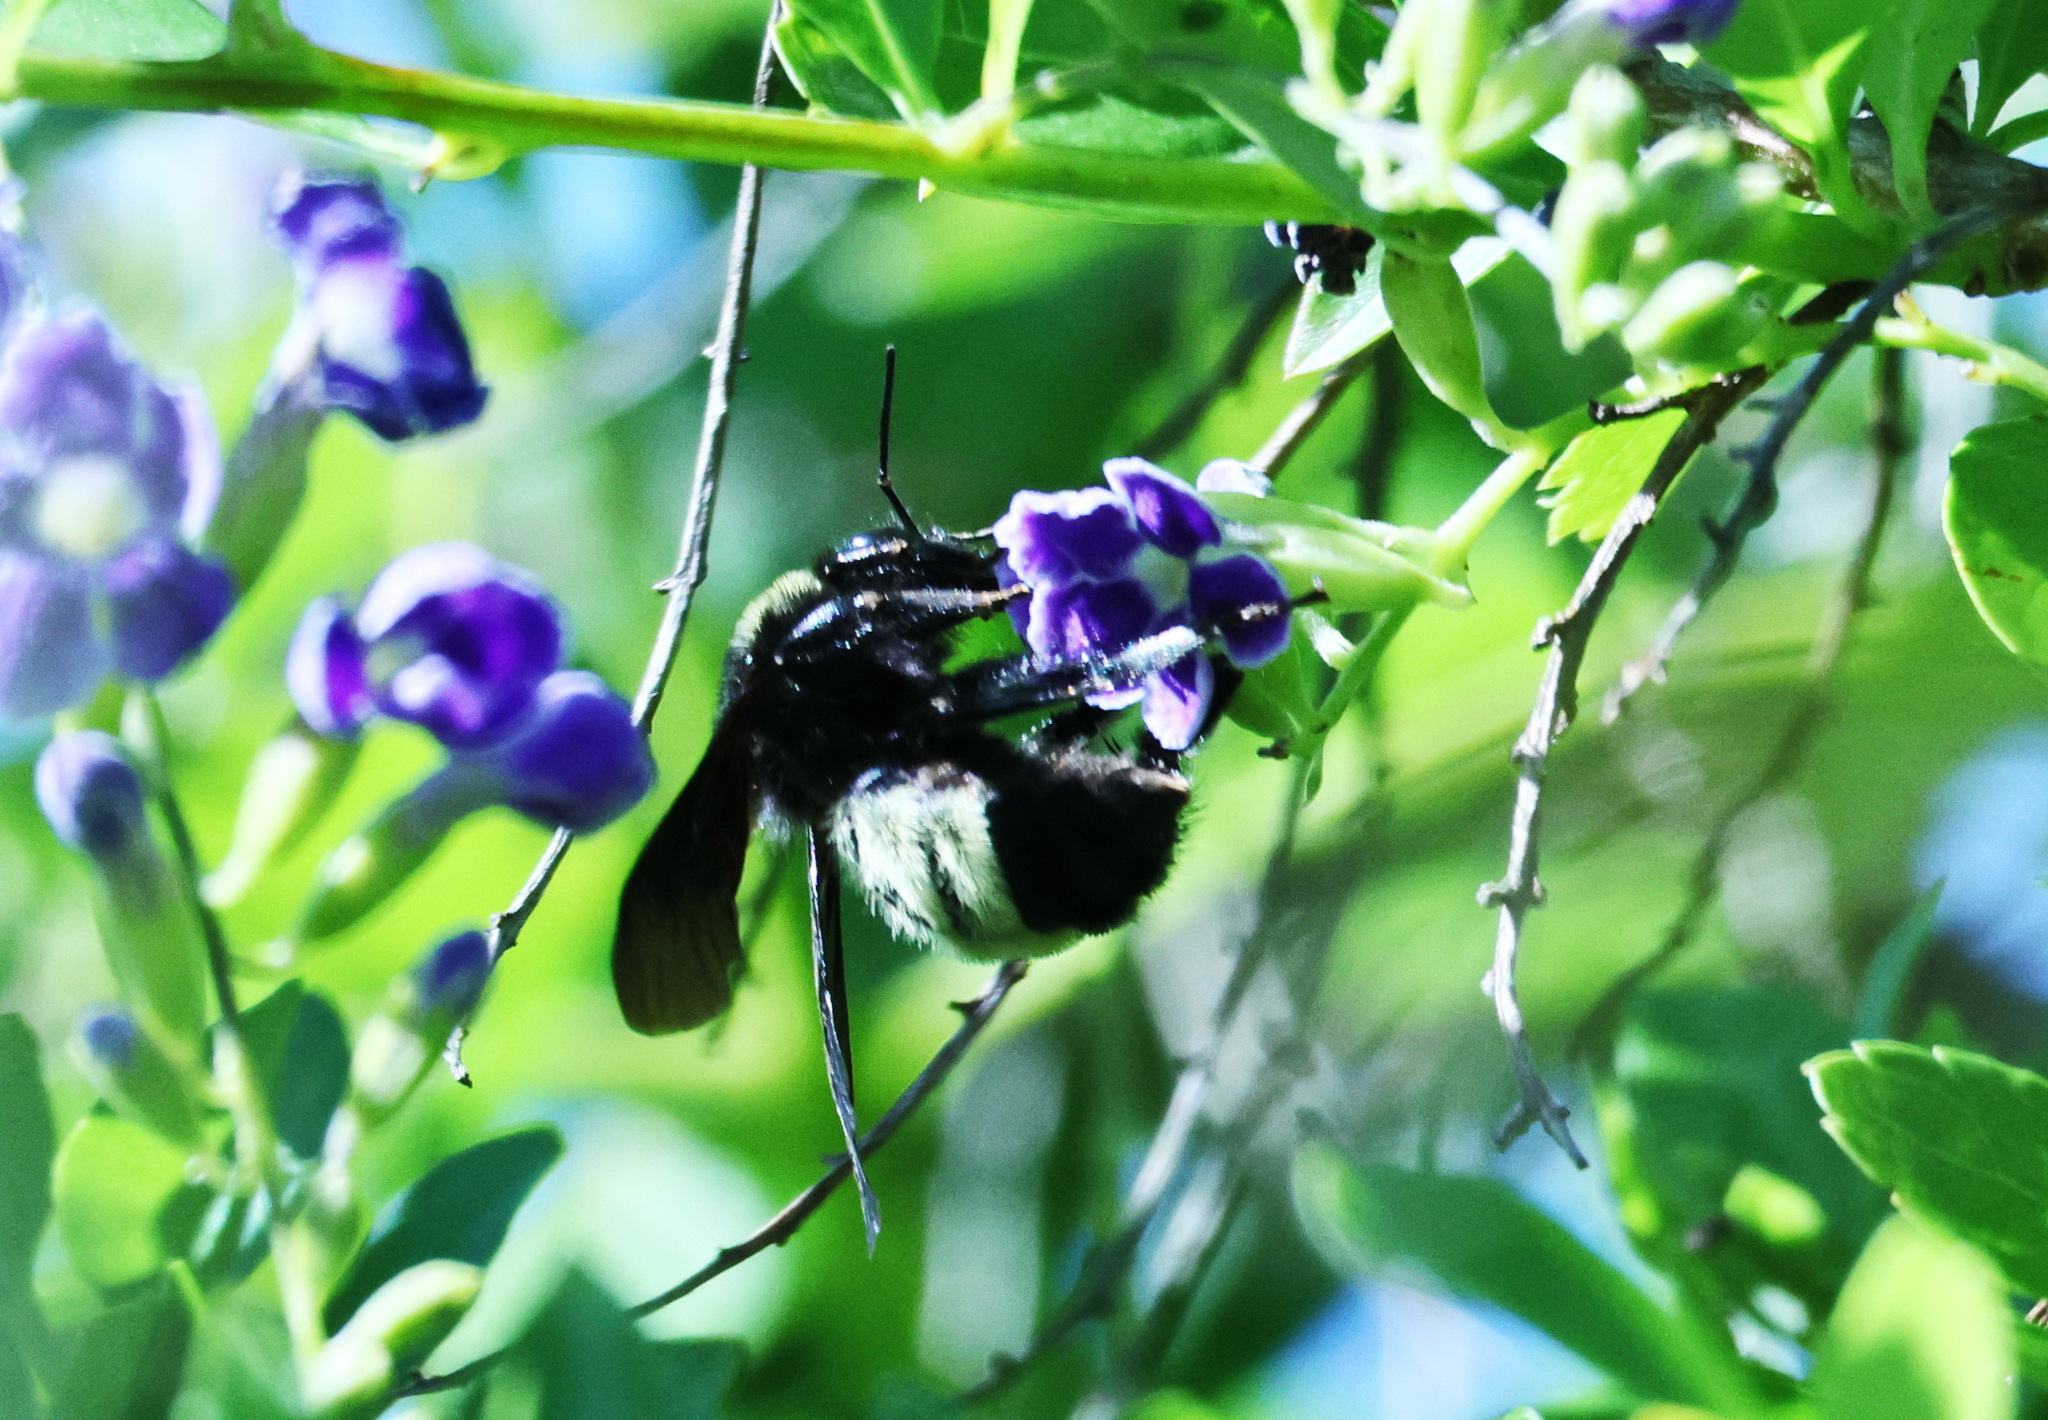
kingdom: Animalia
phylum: Arthropoda
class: Insecta
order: Hymenoptera
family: Apidae
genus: Bombus
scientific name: Bombus pensylvanicus
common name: Bumble bee
